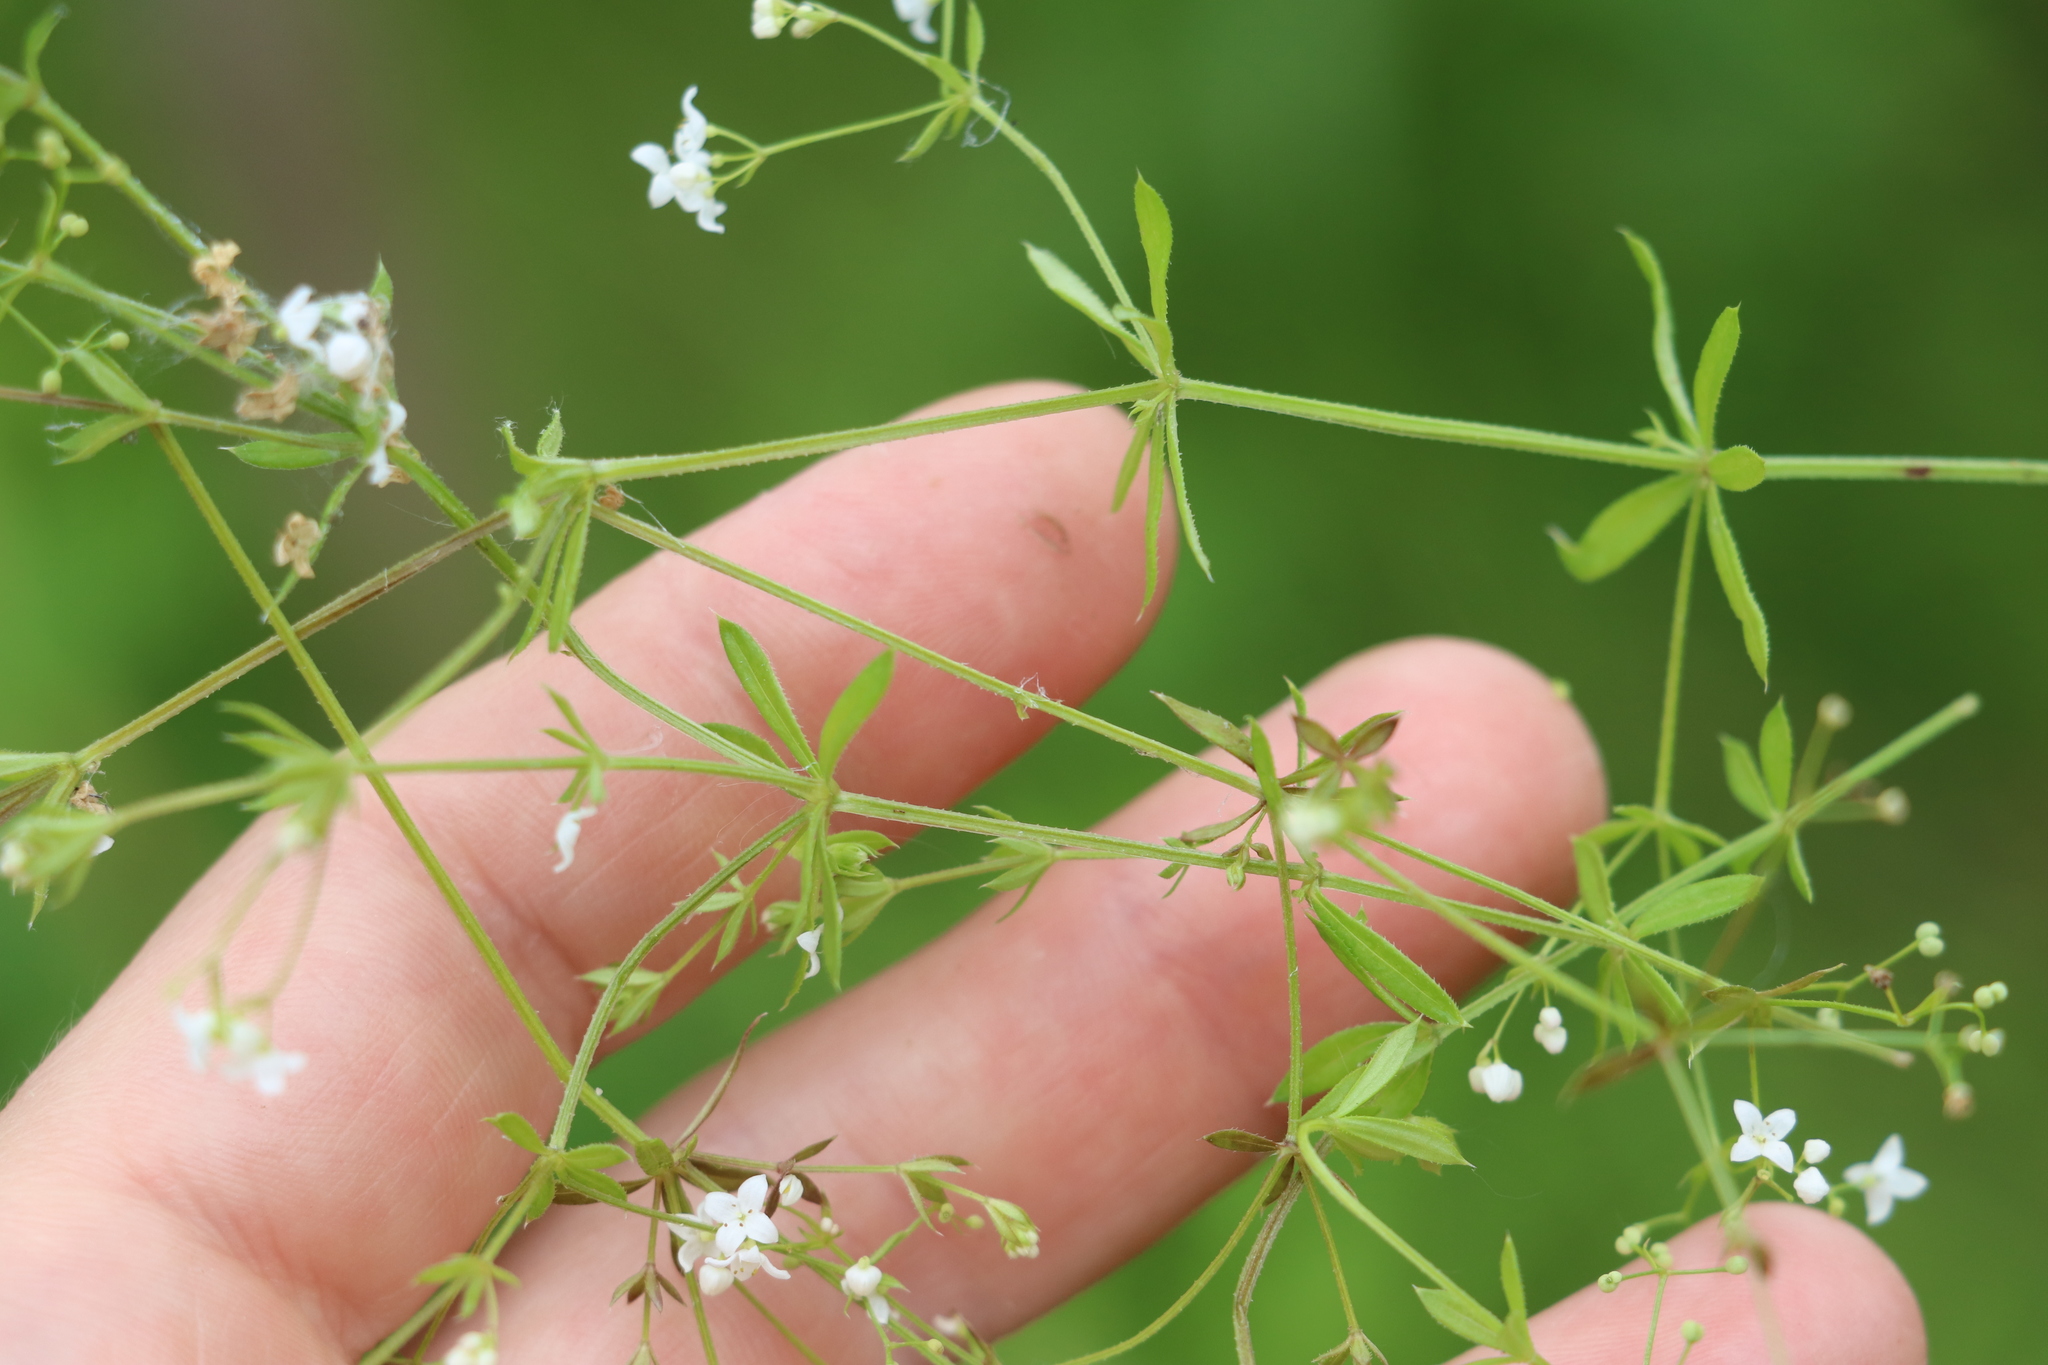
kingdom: Plantae
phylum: Tracheophyta
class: Magnoliopsida
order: Gentianales
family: Rubiaceae
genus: Galium
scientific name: Galium uliginosum
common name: Fen bedstraw
